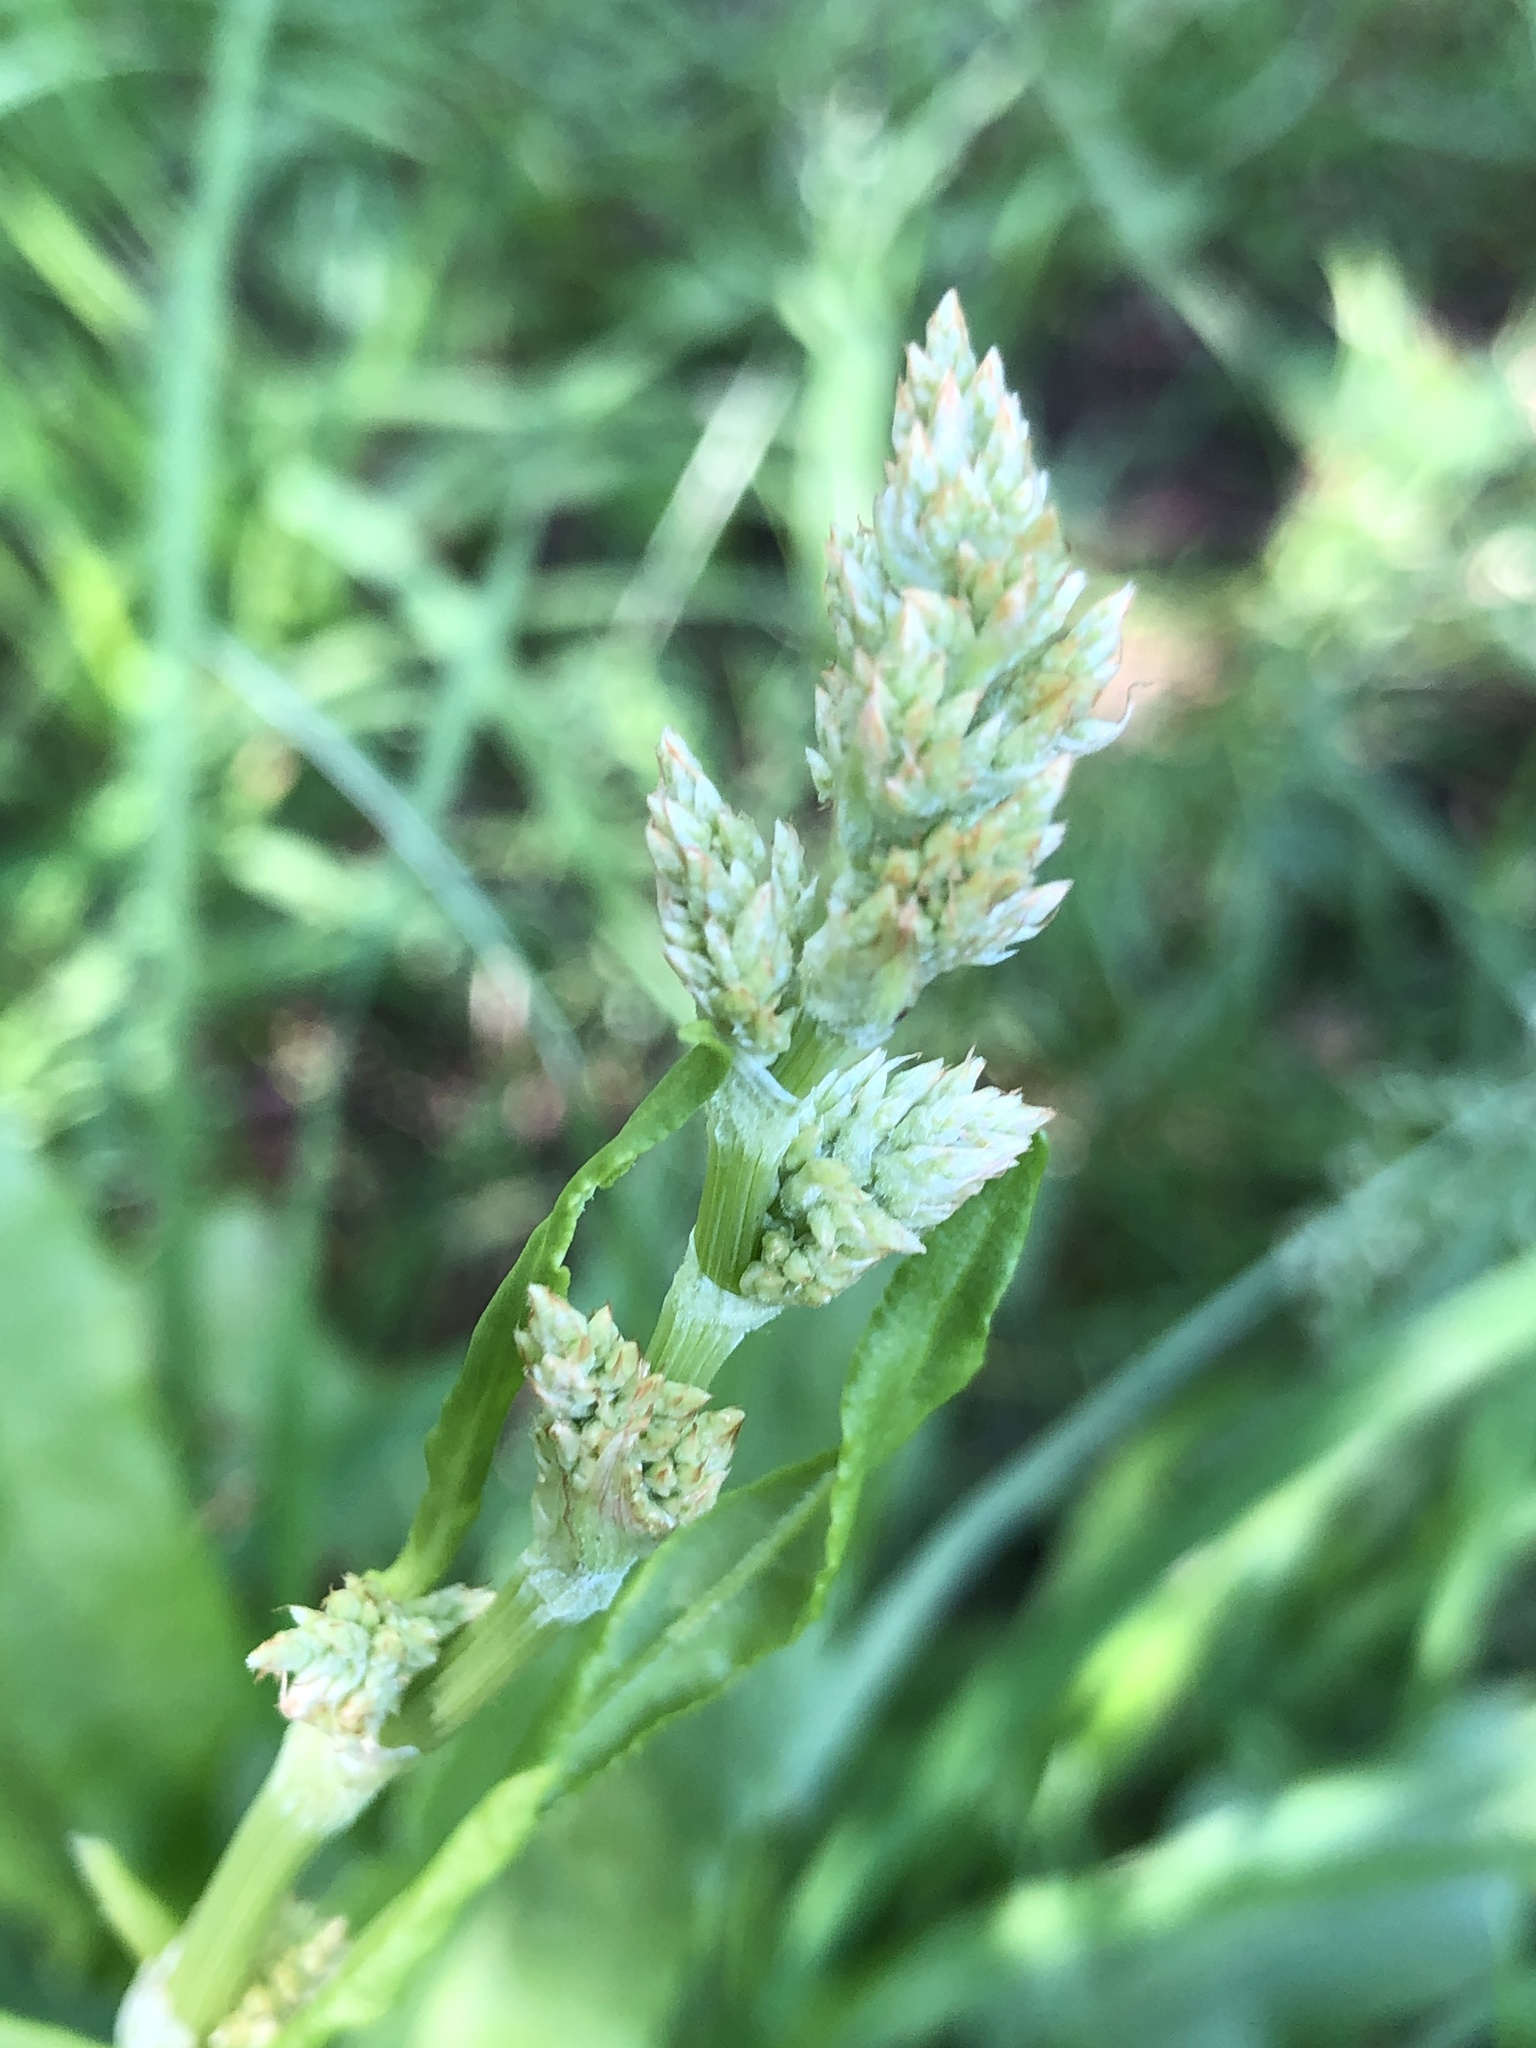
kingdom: Plantae
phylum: Tracheophyta
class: Magnoliopsida
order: Caryophyllales
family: Polygonaceae
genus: Rumex
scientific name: Rumex acetosa
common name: Garden sorrel
